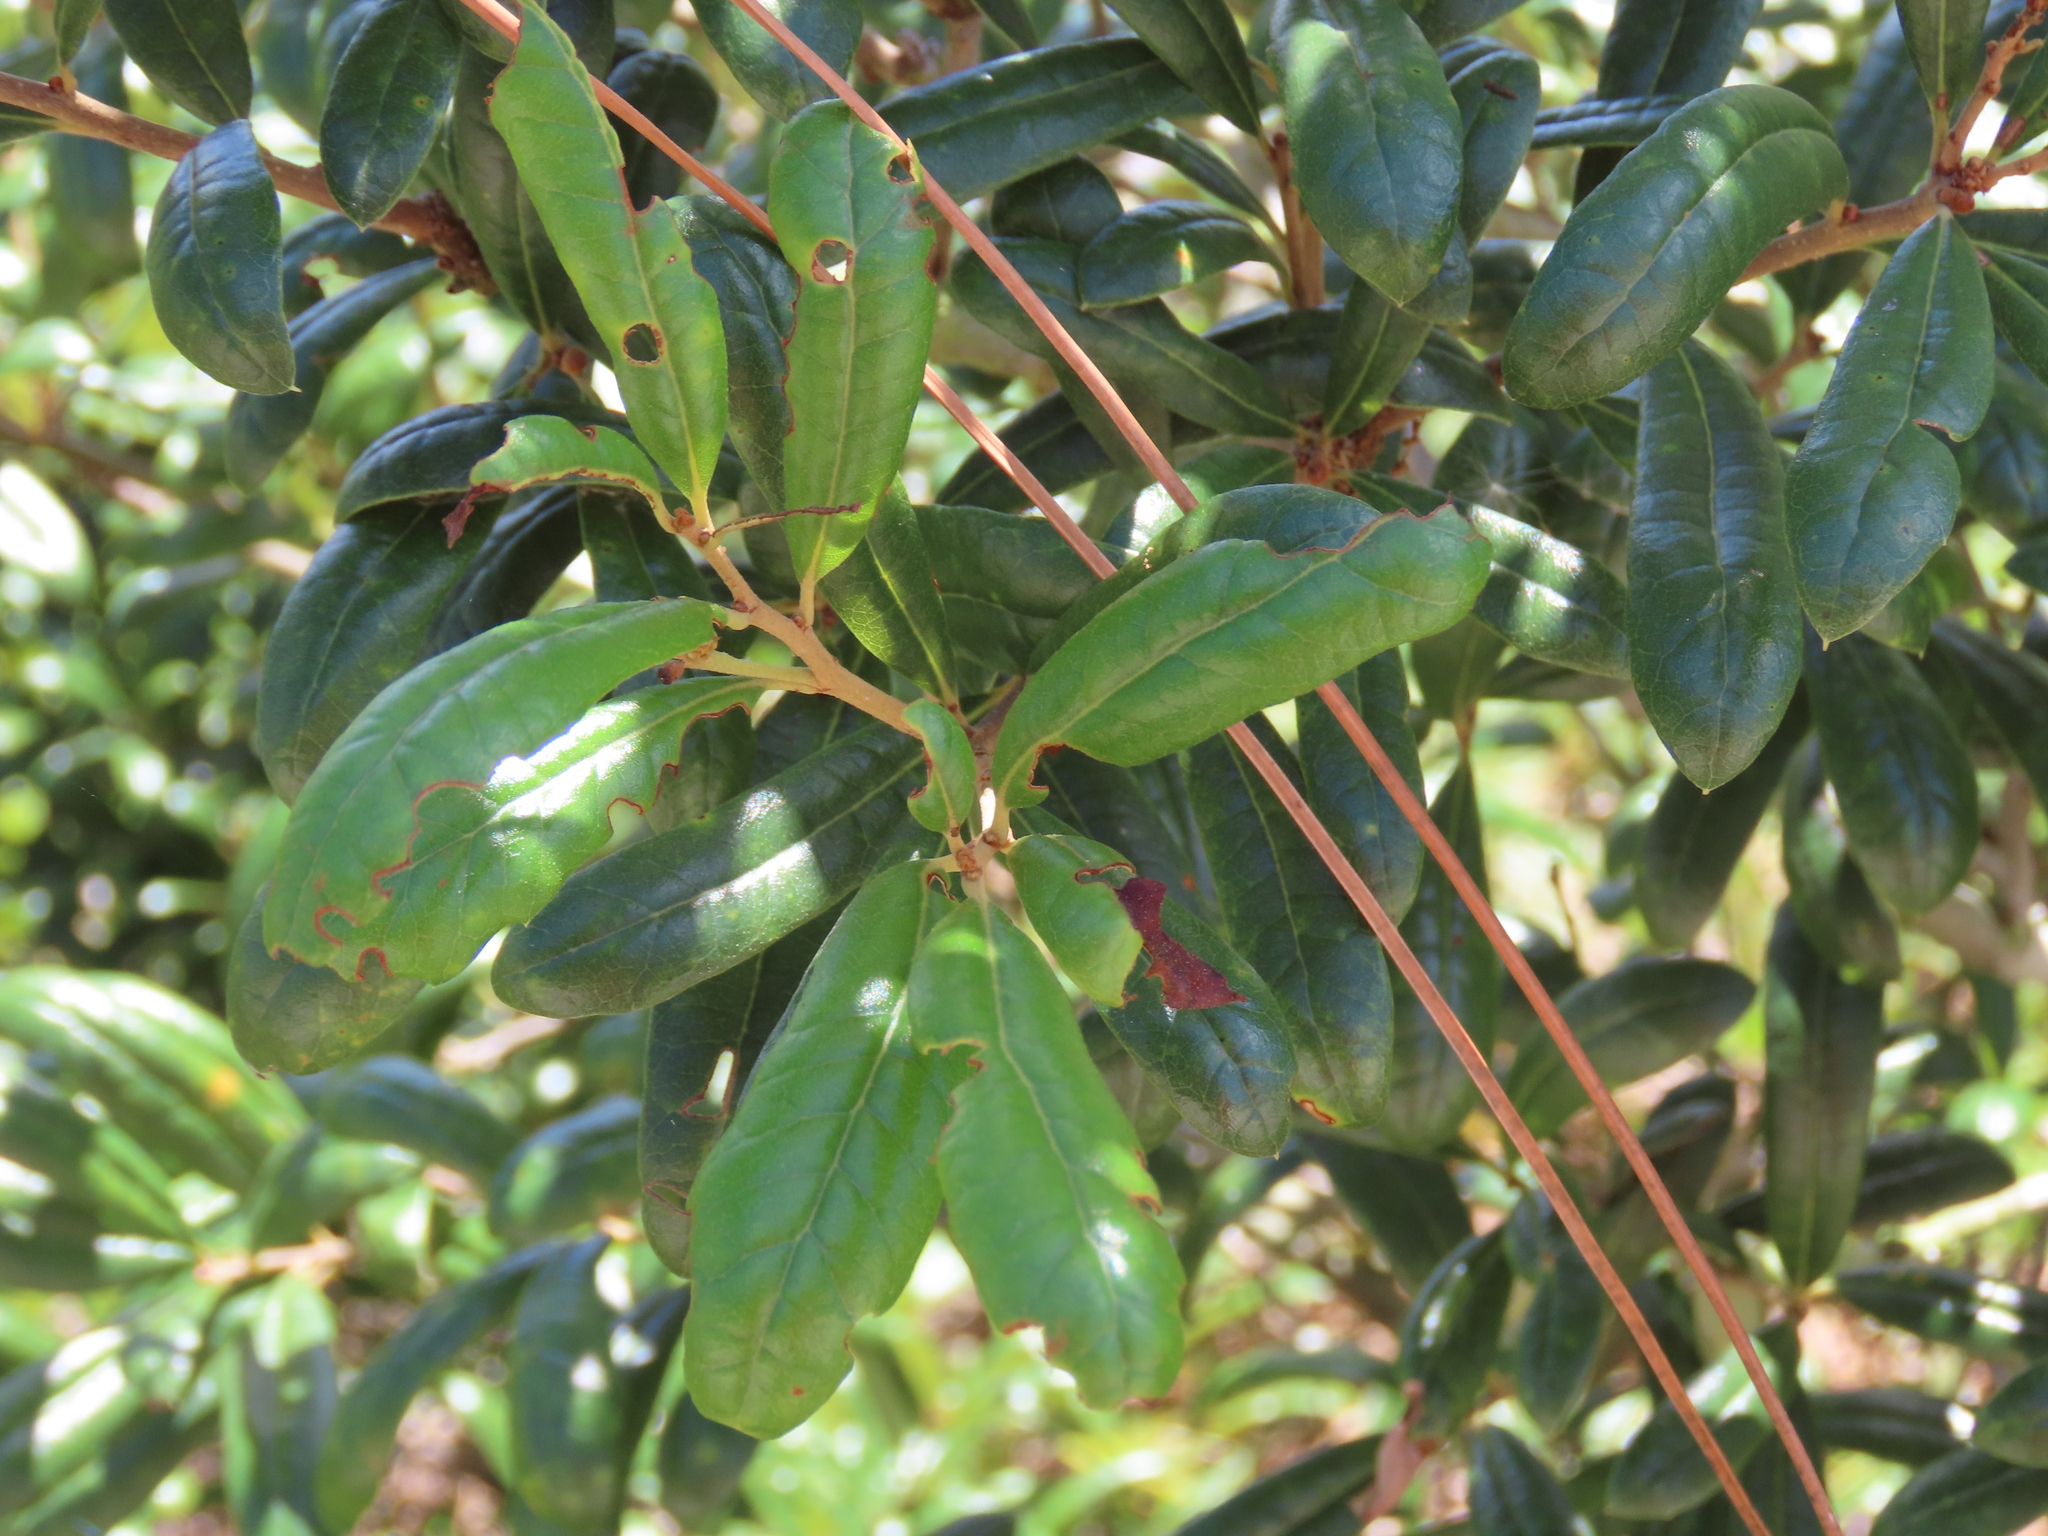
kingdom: Plantae
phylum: Tracheophyta
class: Magnoliopsida
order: Fagales
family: Fagaceae
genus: Quercus
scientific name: Quercus geminata
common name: Sand live oak
